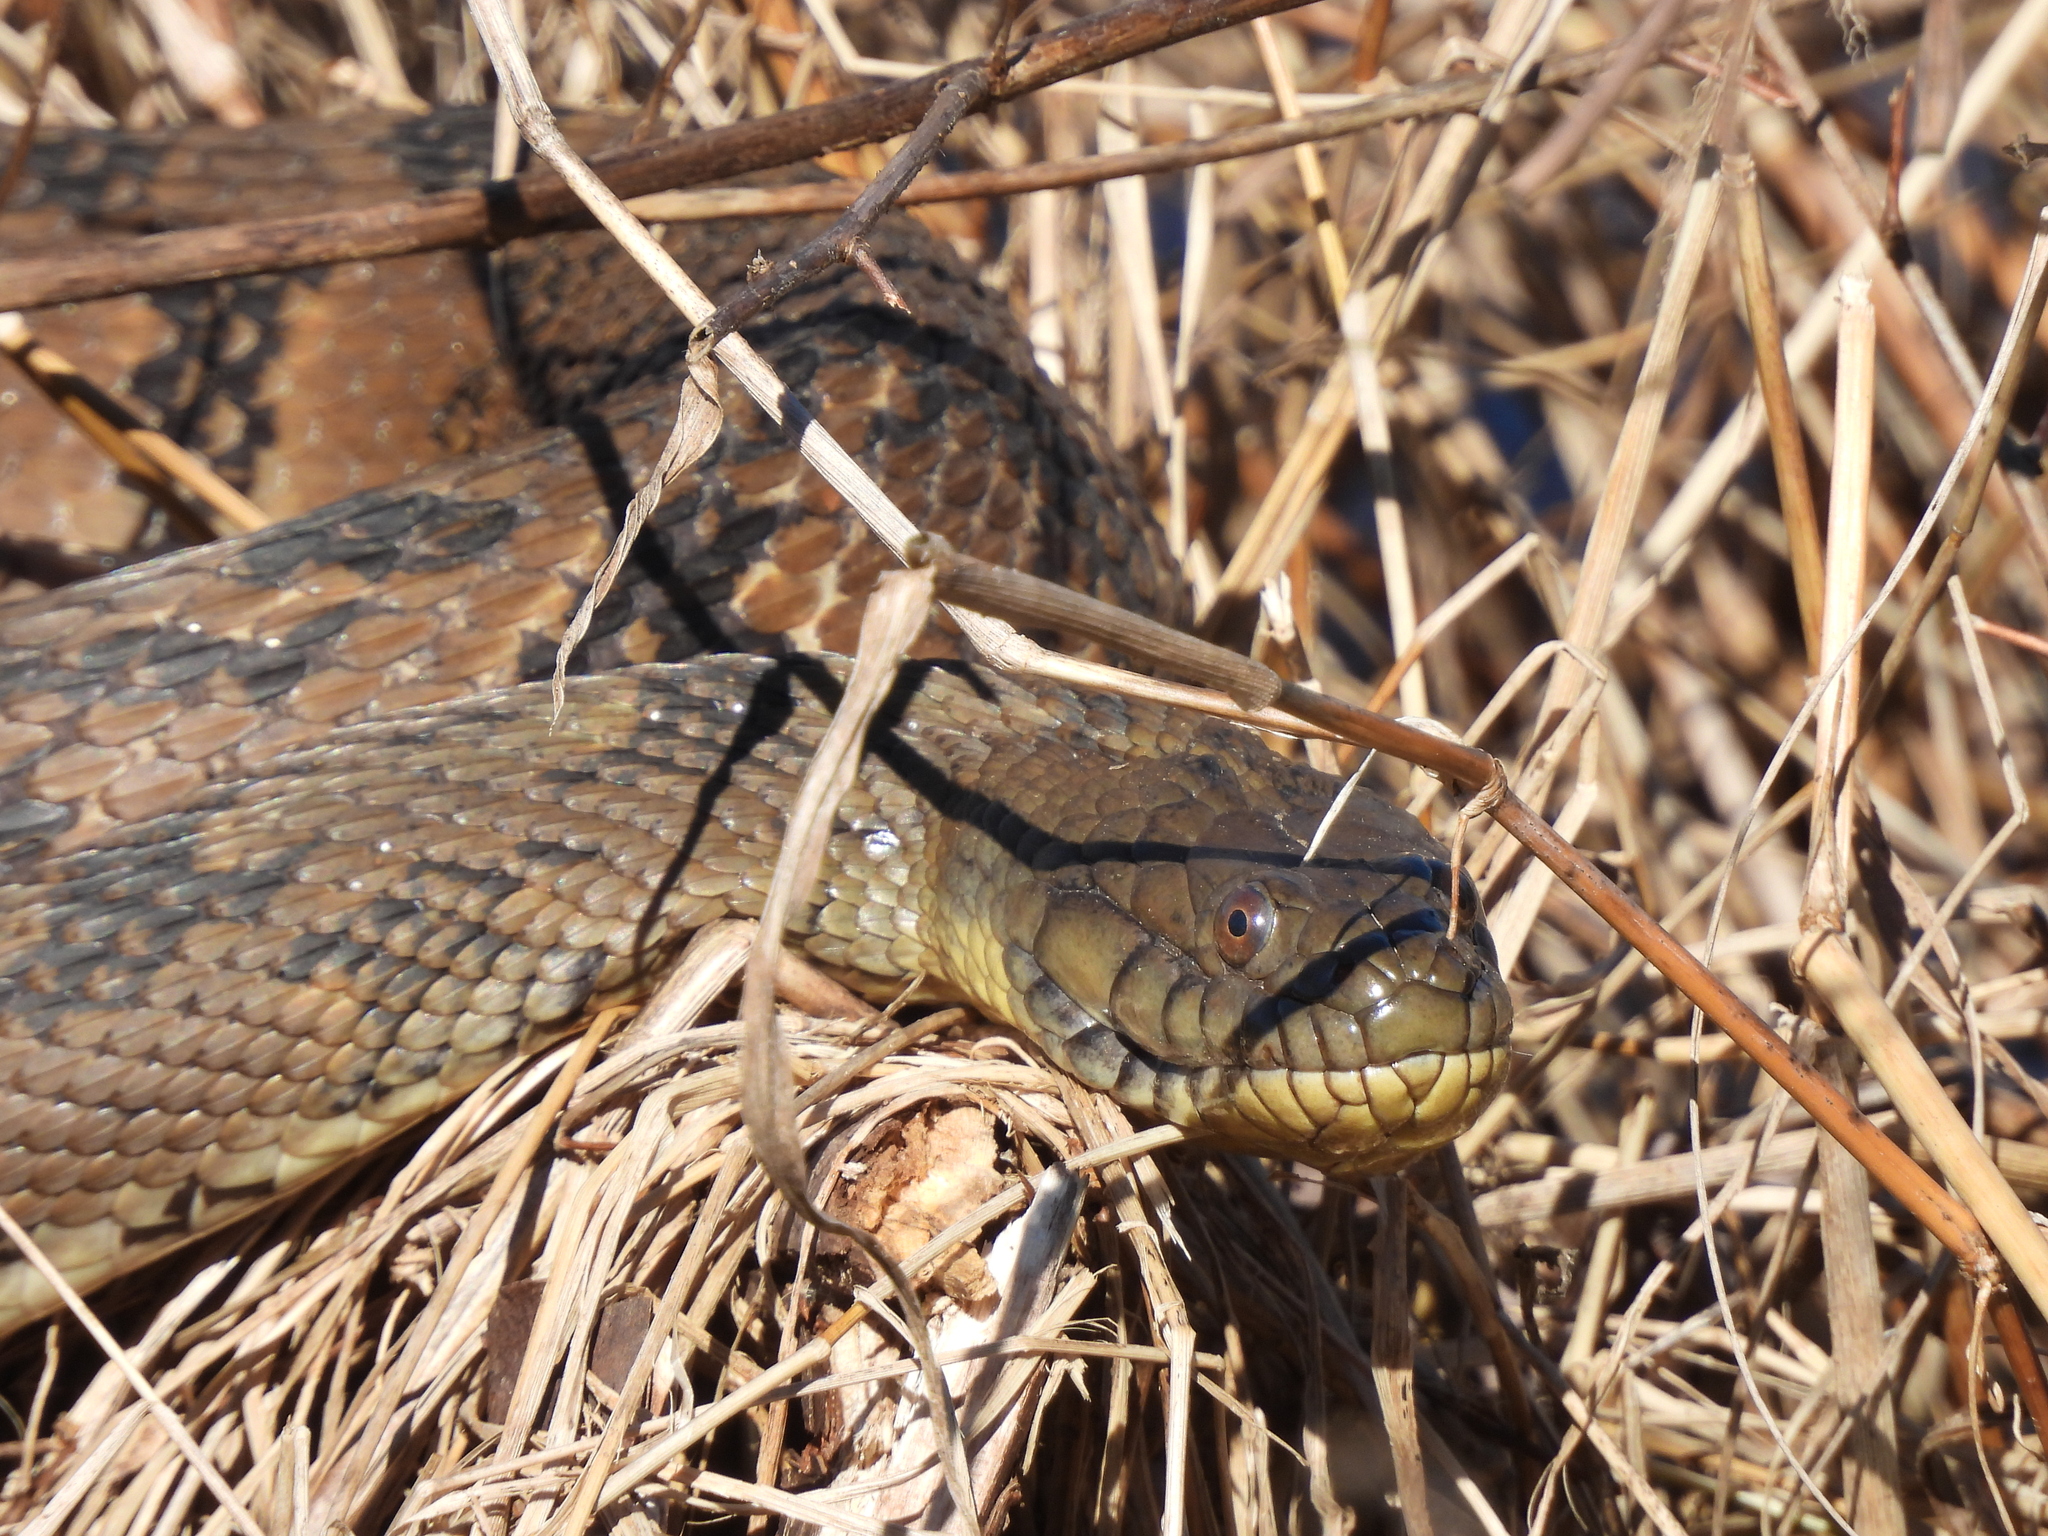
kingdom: Animalia
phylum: Chordata
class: Squamata
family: Colubridae
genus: Nerodia
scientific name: Nerodia rhombifer
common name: Diamondback water snake
